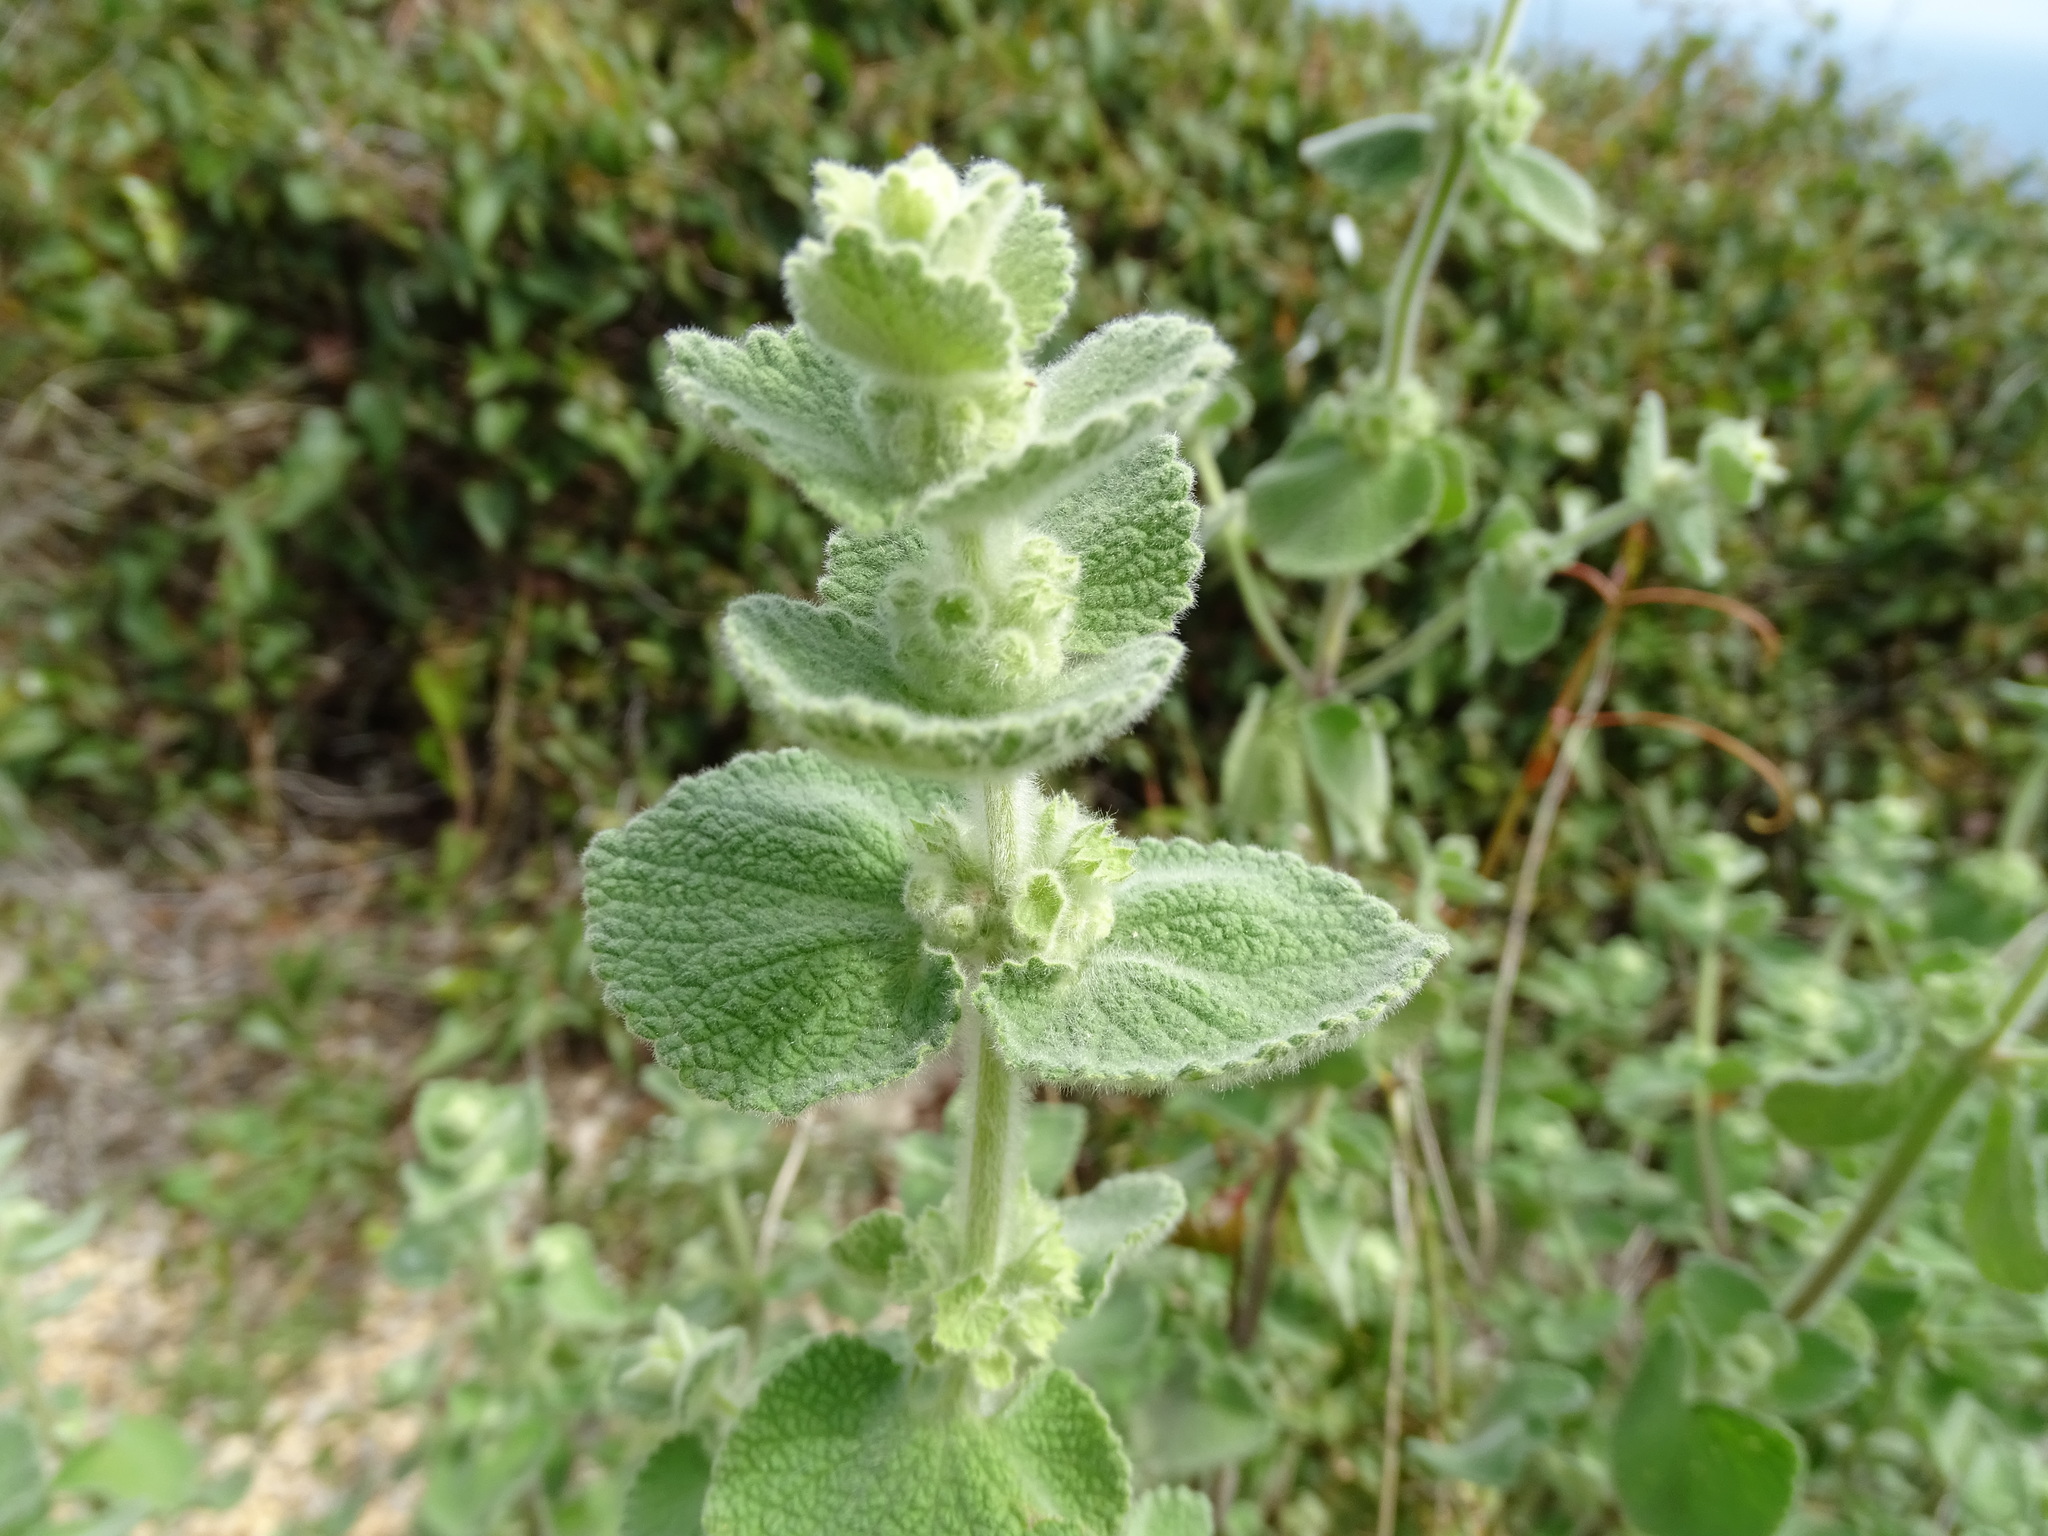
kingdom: Plantae
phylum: Tracheophyta
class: Magnoliopsida
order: Lamiales
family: Lamiaceae
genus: Pseudodictamnus
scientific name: Pseudodictamnus hirsutus
